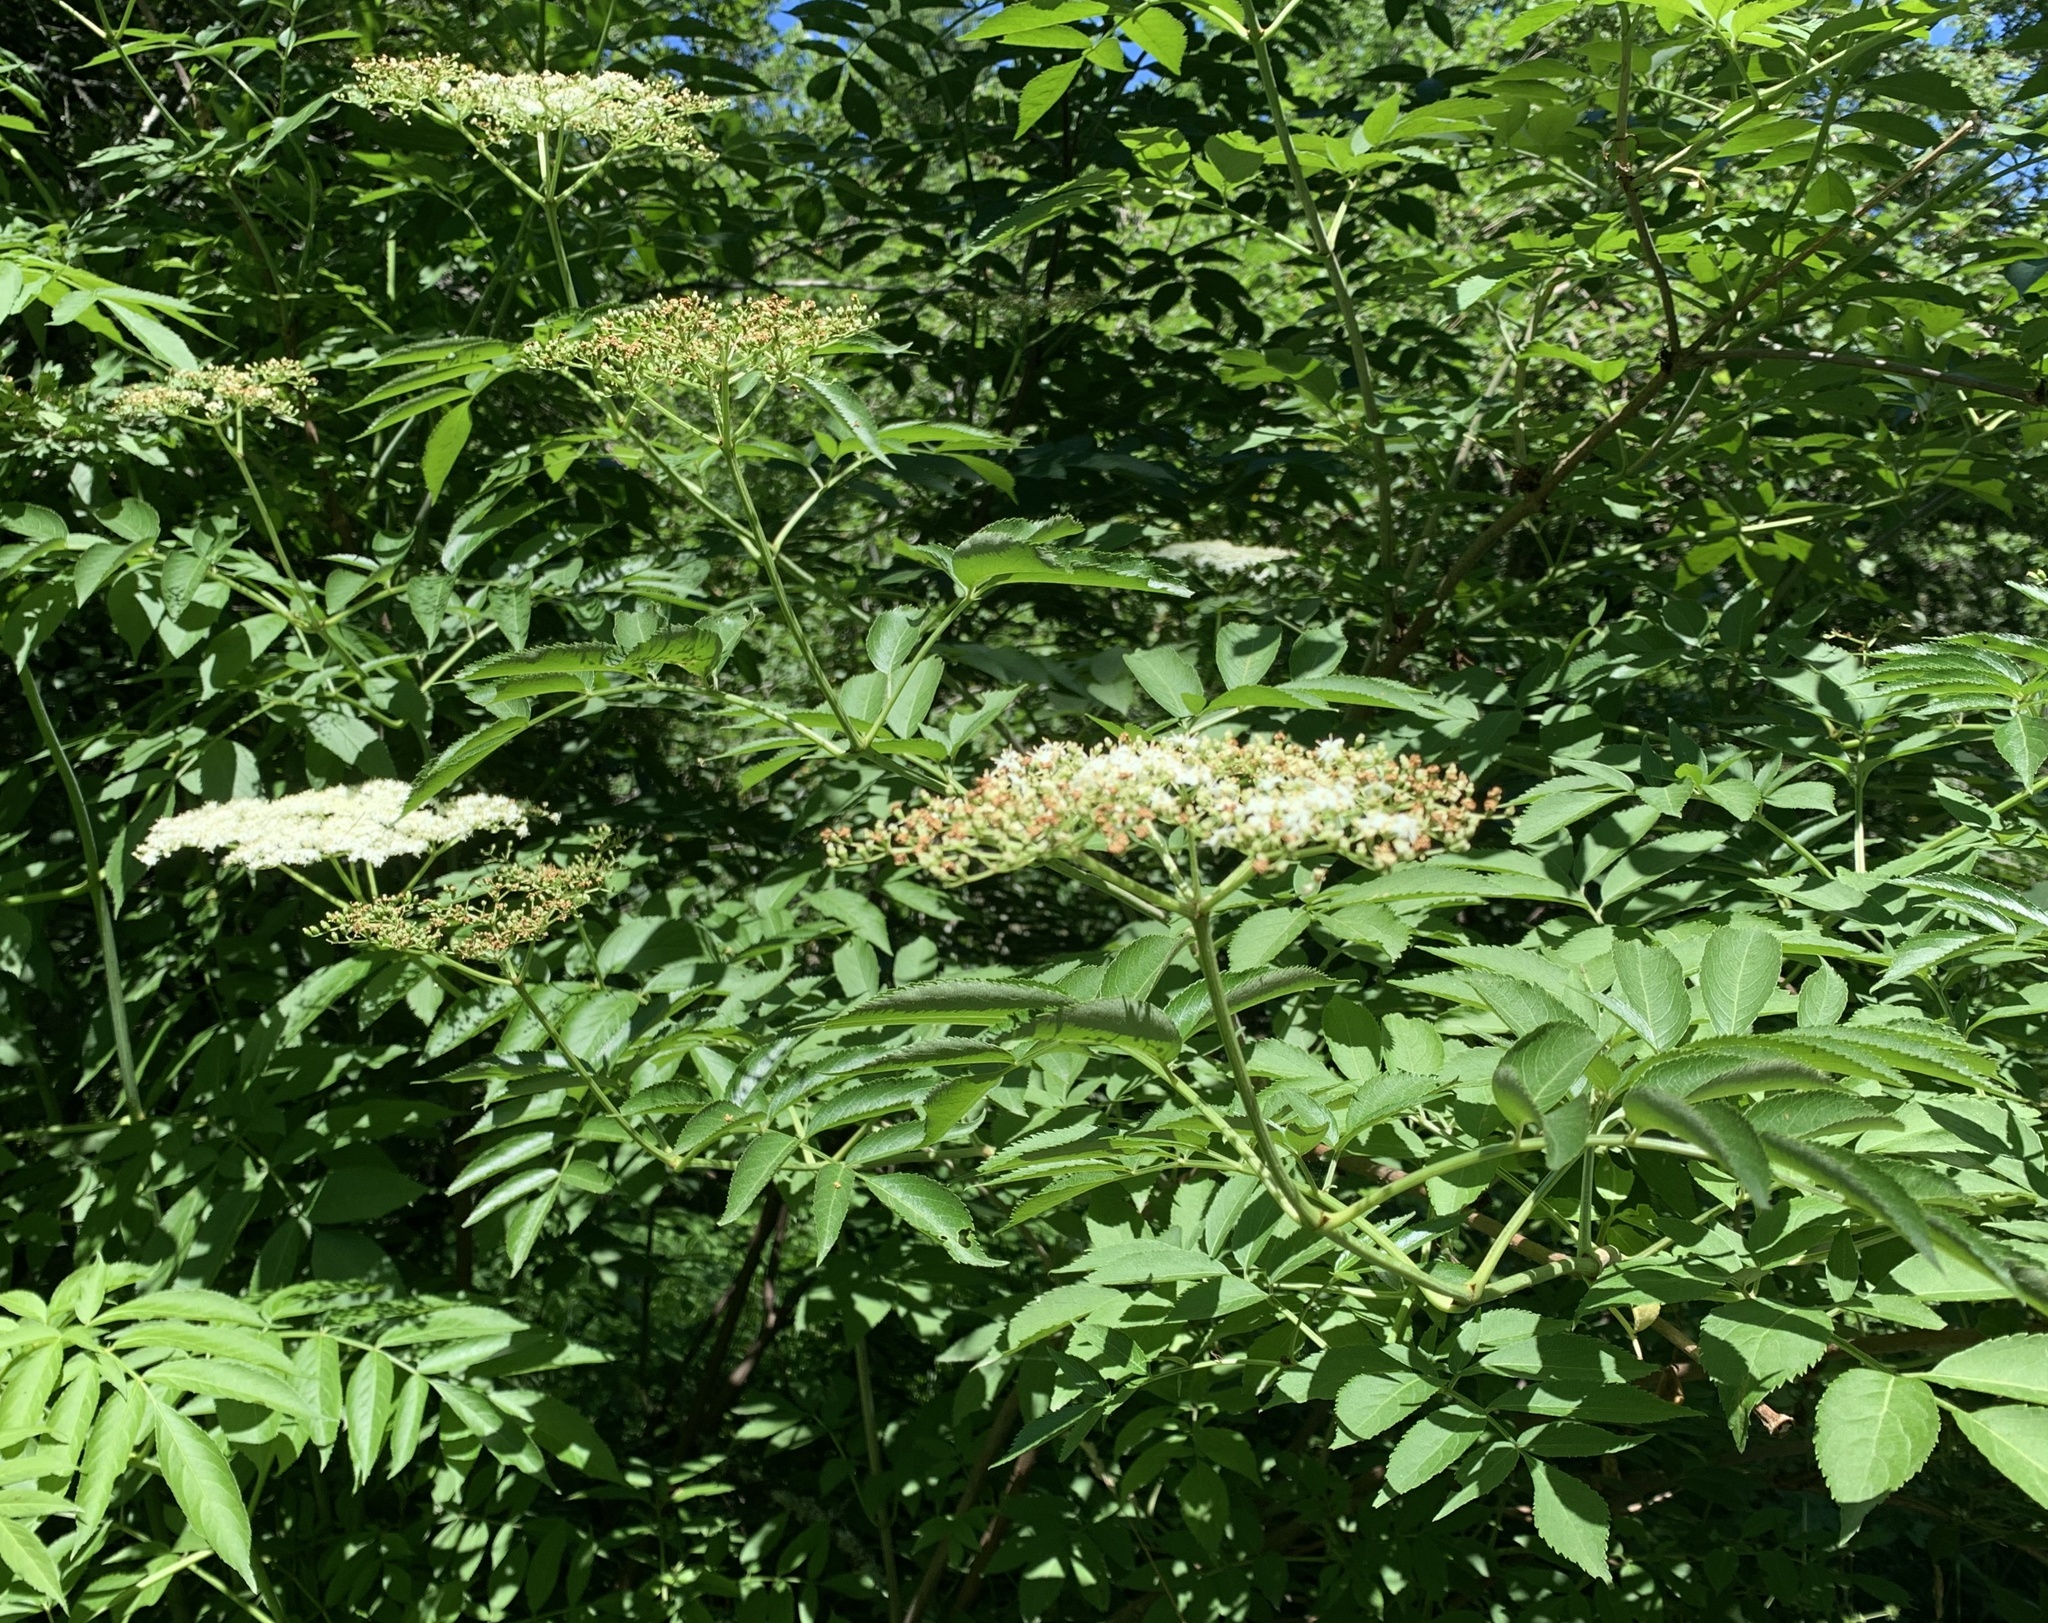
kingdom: Plantae
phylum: Tracheophyta
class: Magnoliopsida
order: Dipsacales
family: Viburnaceae
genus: Sambucus
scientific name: Sambucus canadensis
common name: American elder
